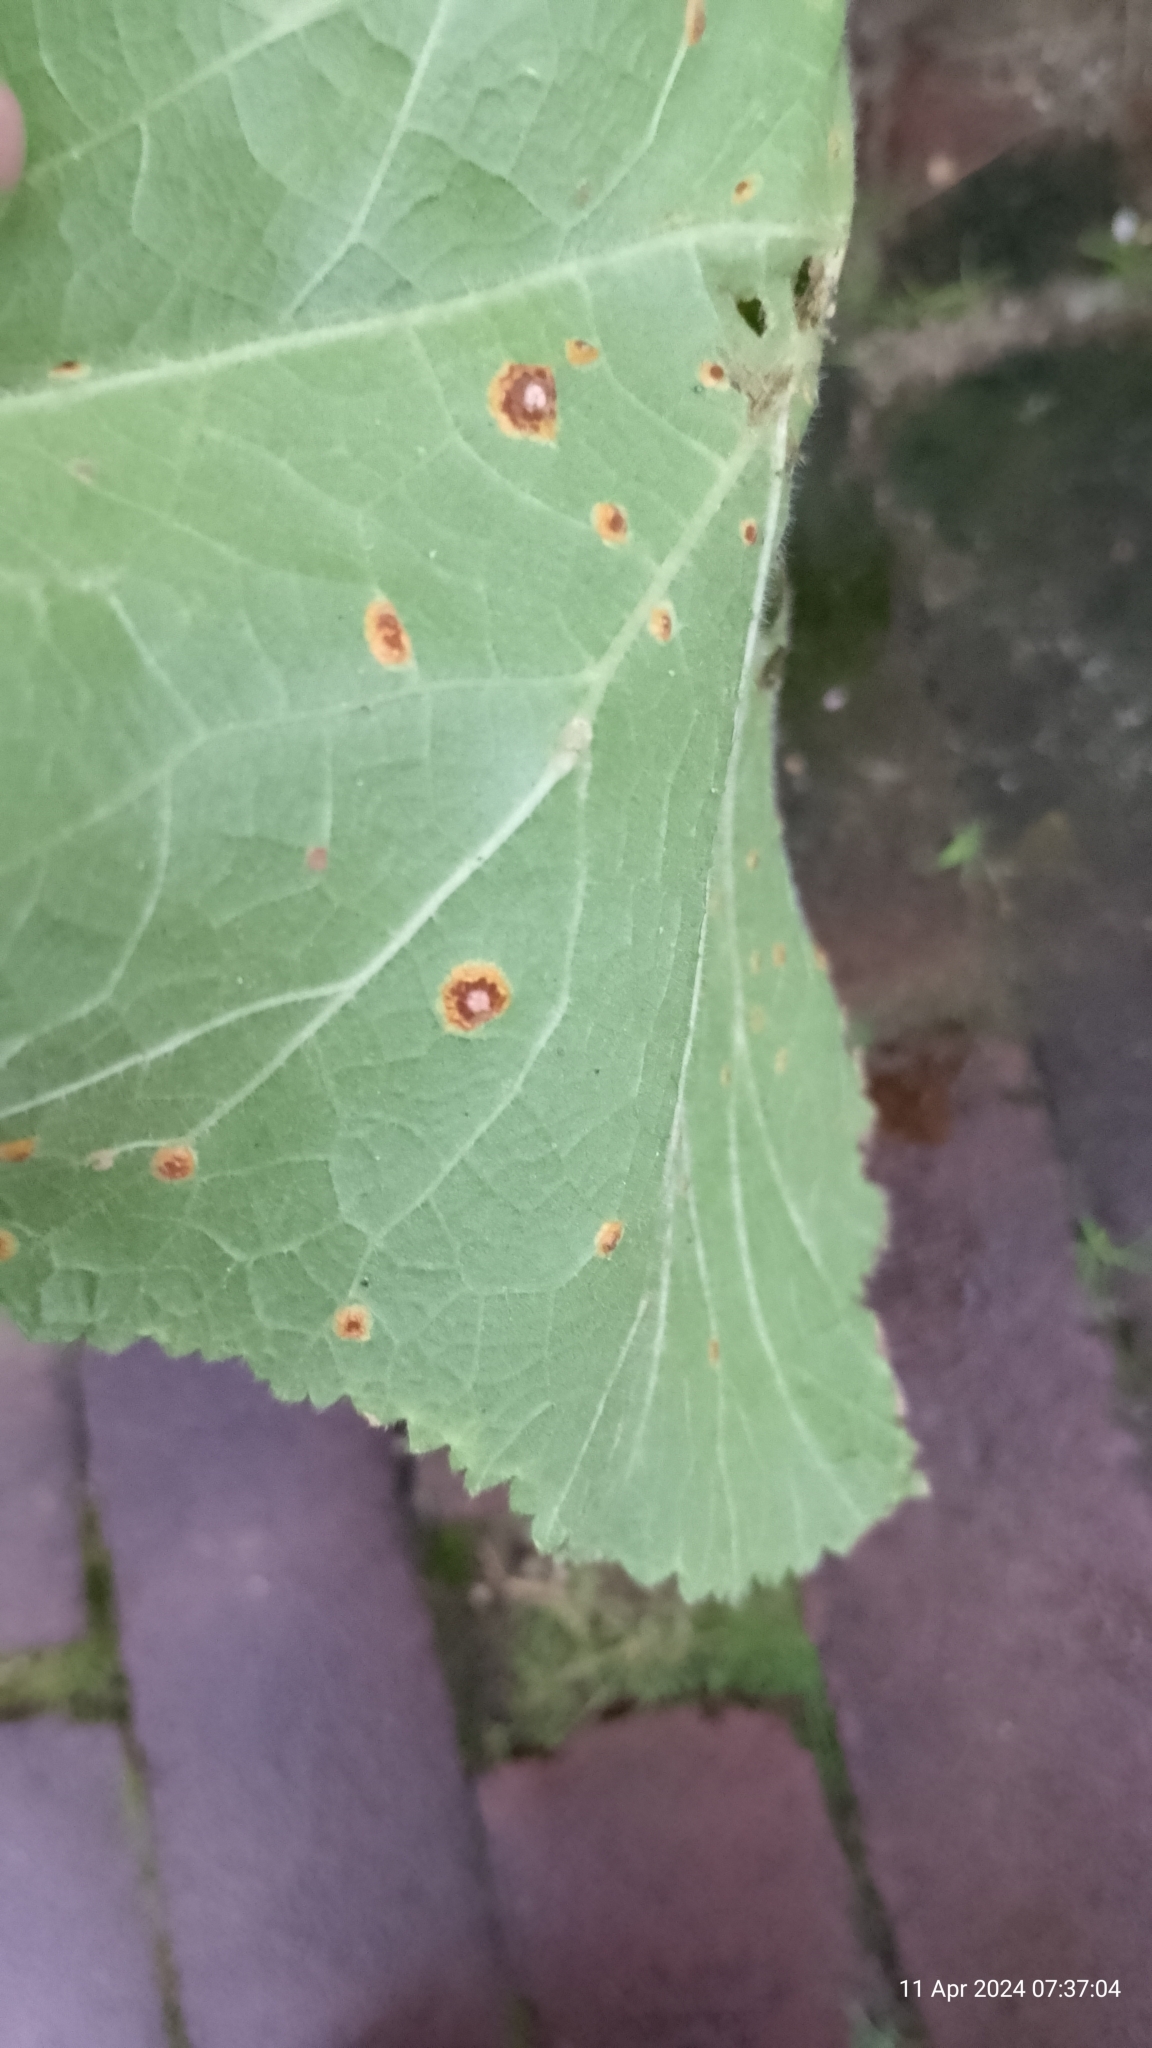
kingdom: Fungi
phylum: Basidiomycota
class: Pucciniomycetes
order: Pucciniales
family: Pucciniaceae
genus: Puccinia
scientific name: Puccinia malvacearum
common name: Hollyhock rust
